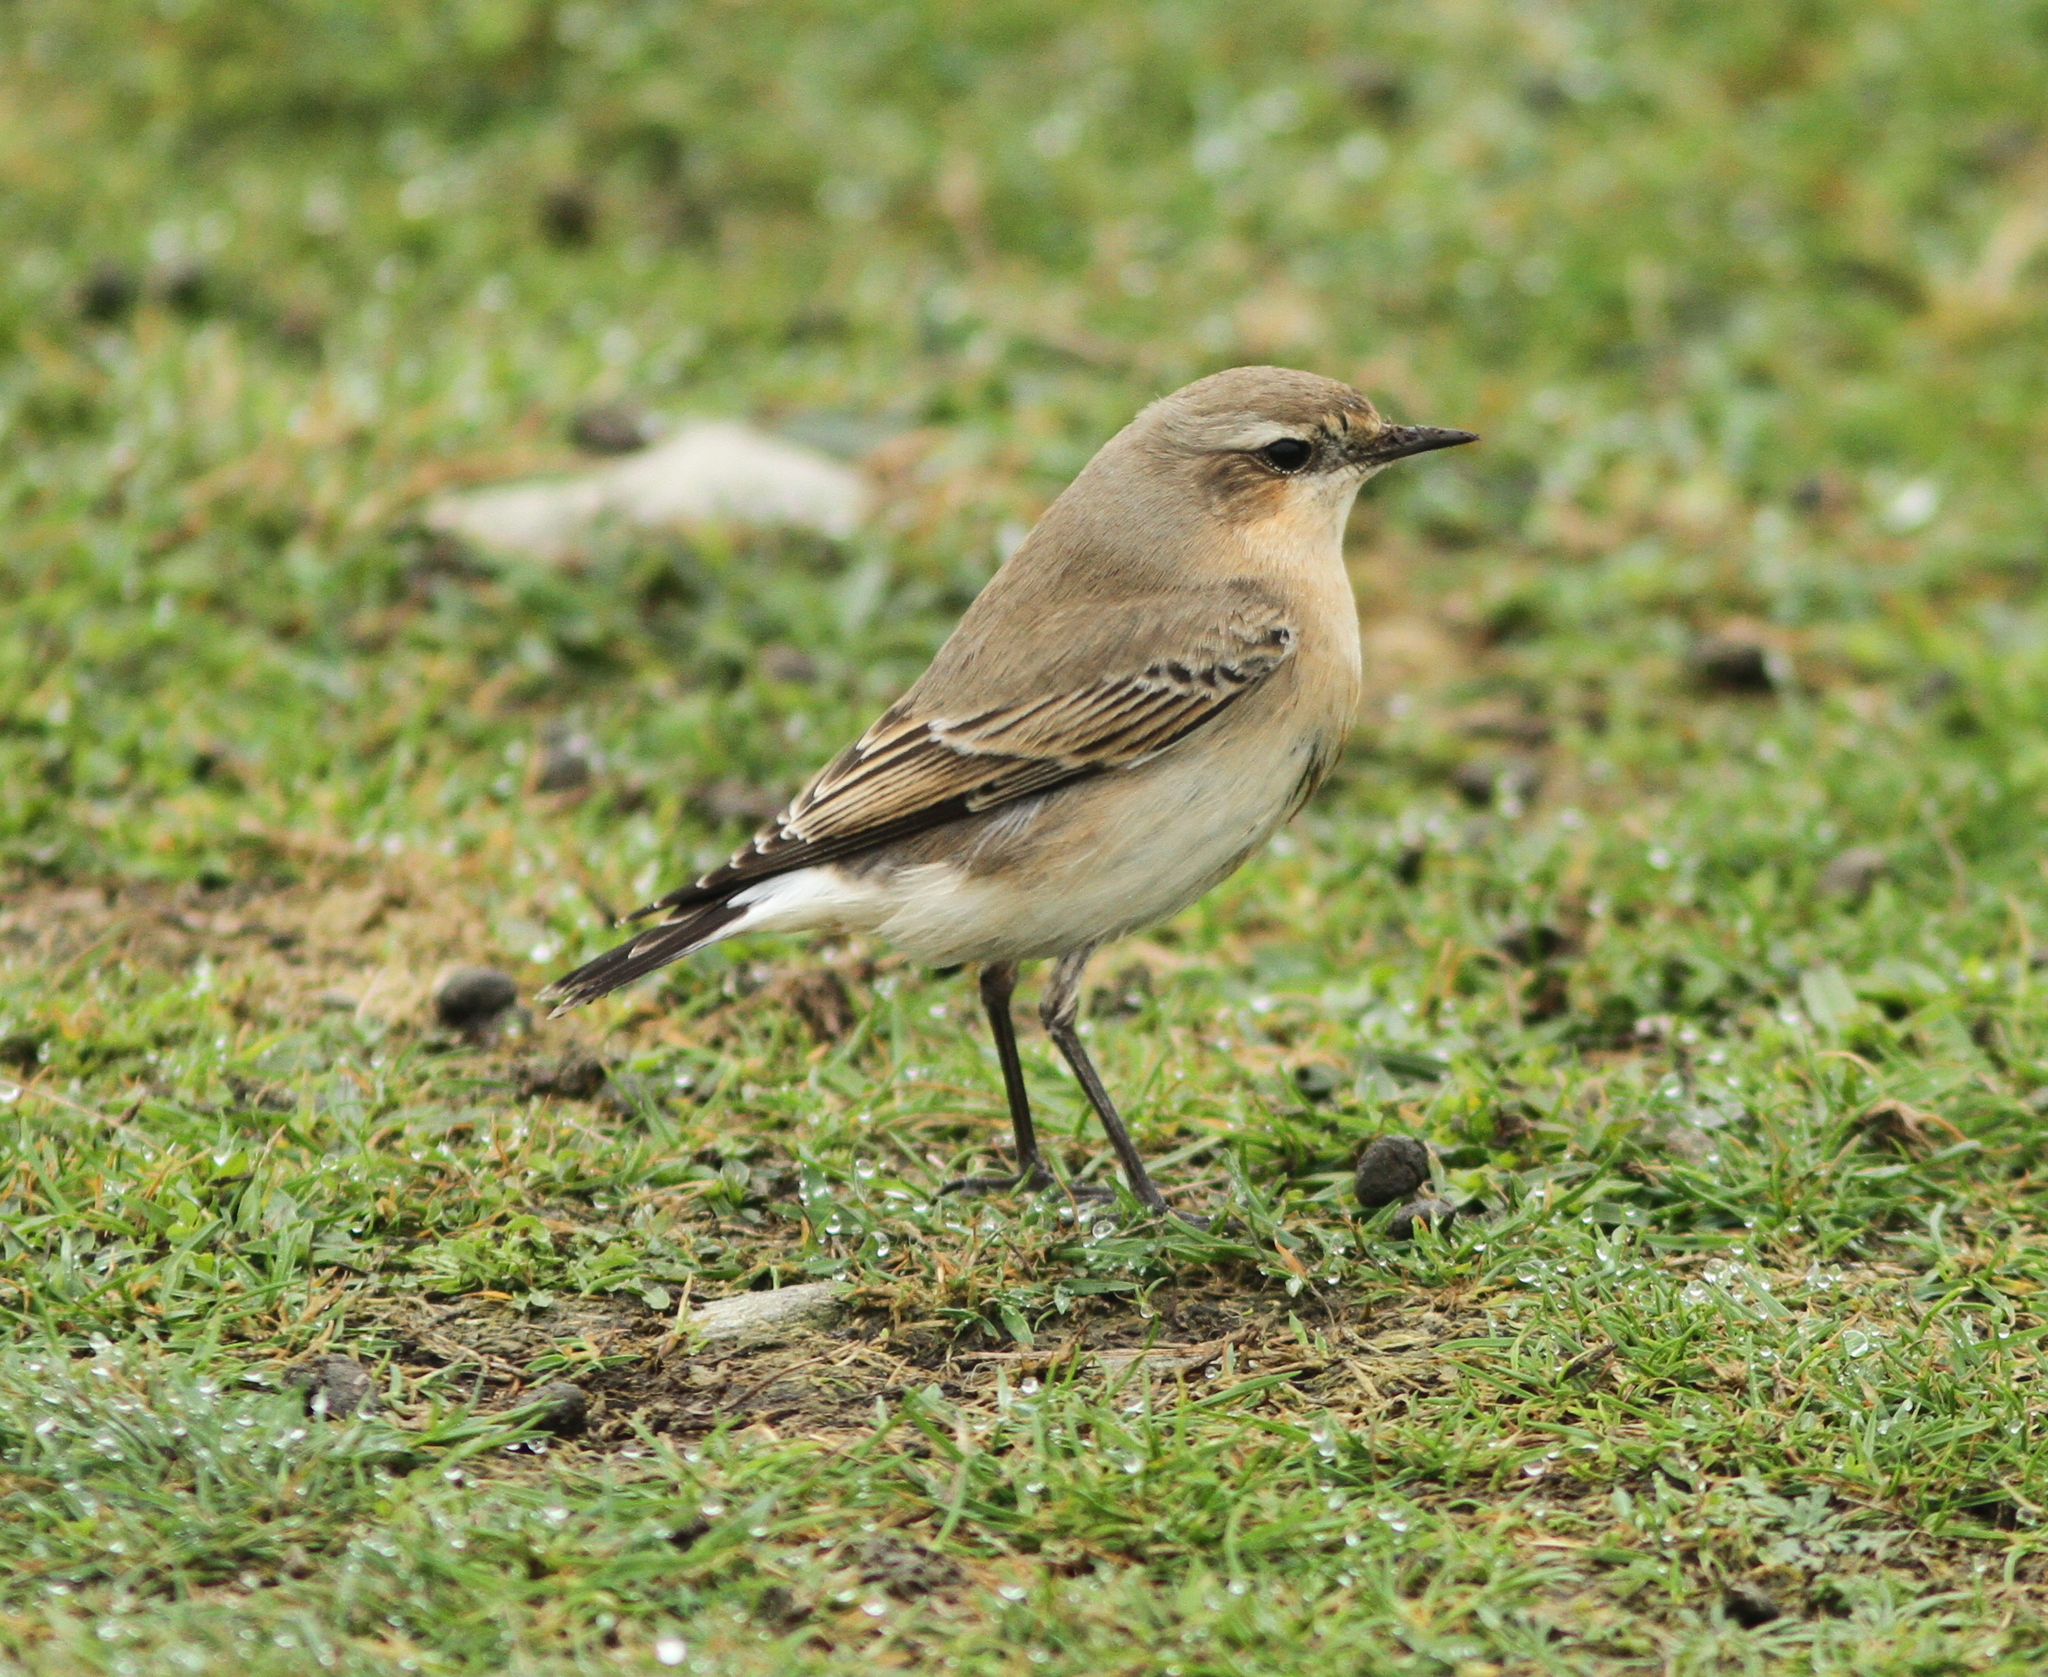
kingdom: Animalia
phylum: Chordata
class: Aves
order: Passeriformes
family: Muscicapidae
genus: Oenanthe
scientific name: Oenanthe oenanthe
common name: Northern wheatear
